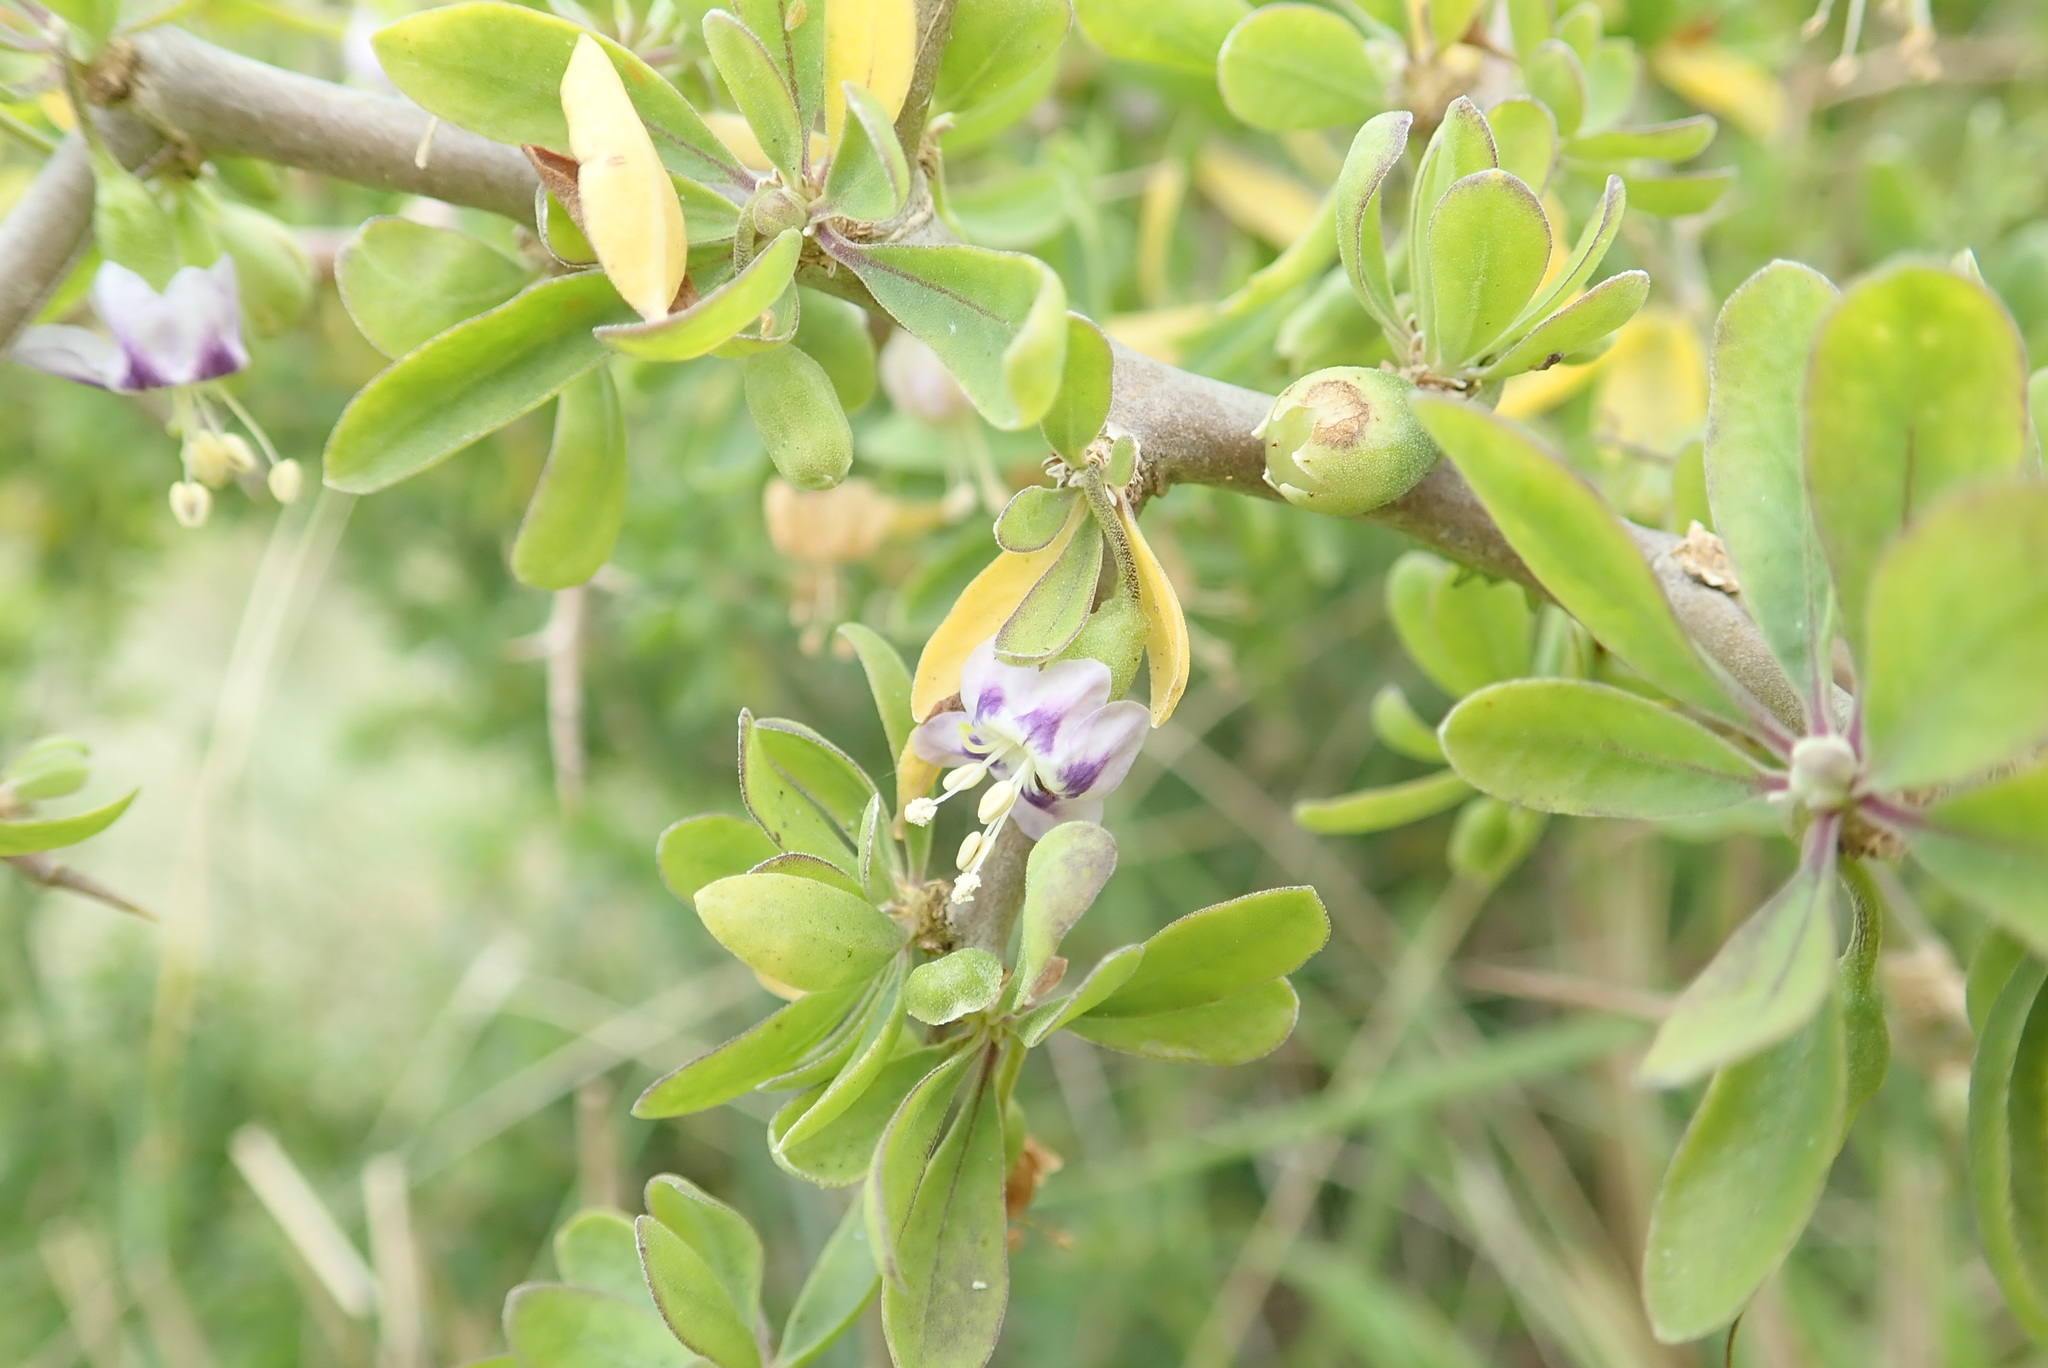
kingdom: Plantae
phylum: Tracheophyta
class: Magnoliopsida
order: Solanales
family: Solanaceae
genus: Lycium
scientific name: Lycium ferocissimum
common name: African boxthorn
